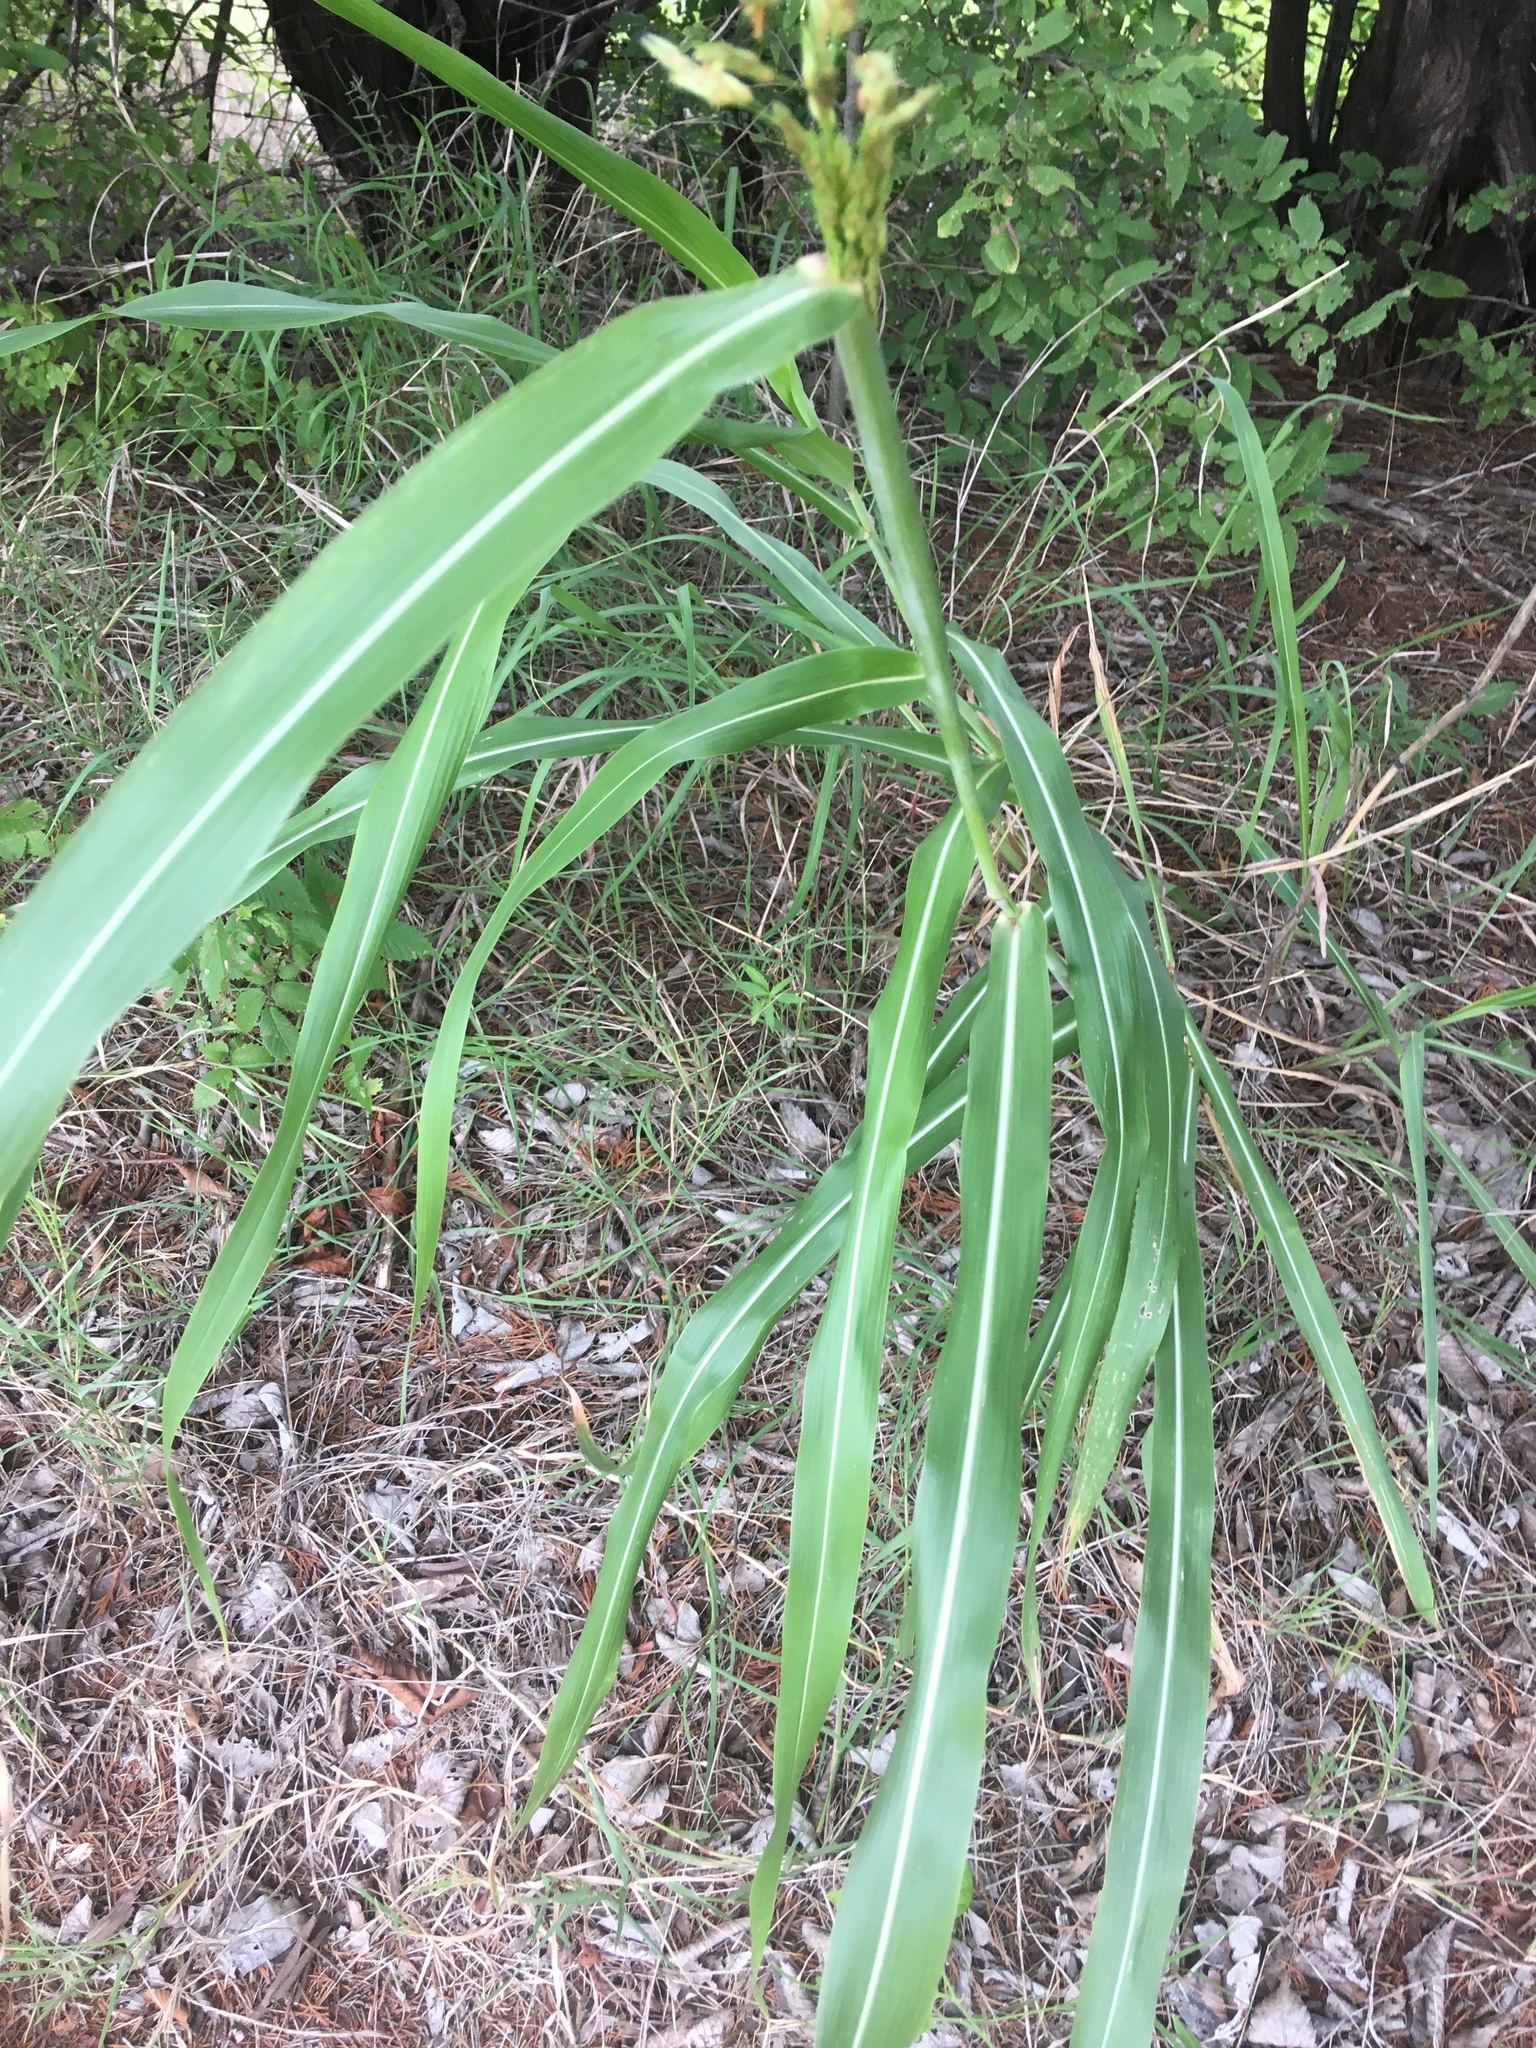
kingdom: Plantae
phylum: Tracheophyta
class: Liliopsida
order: Poales
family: Poaceae
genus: Sorghum
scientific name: Sorghum halepense
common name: Johnson-grass
